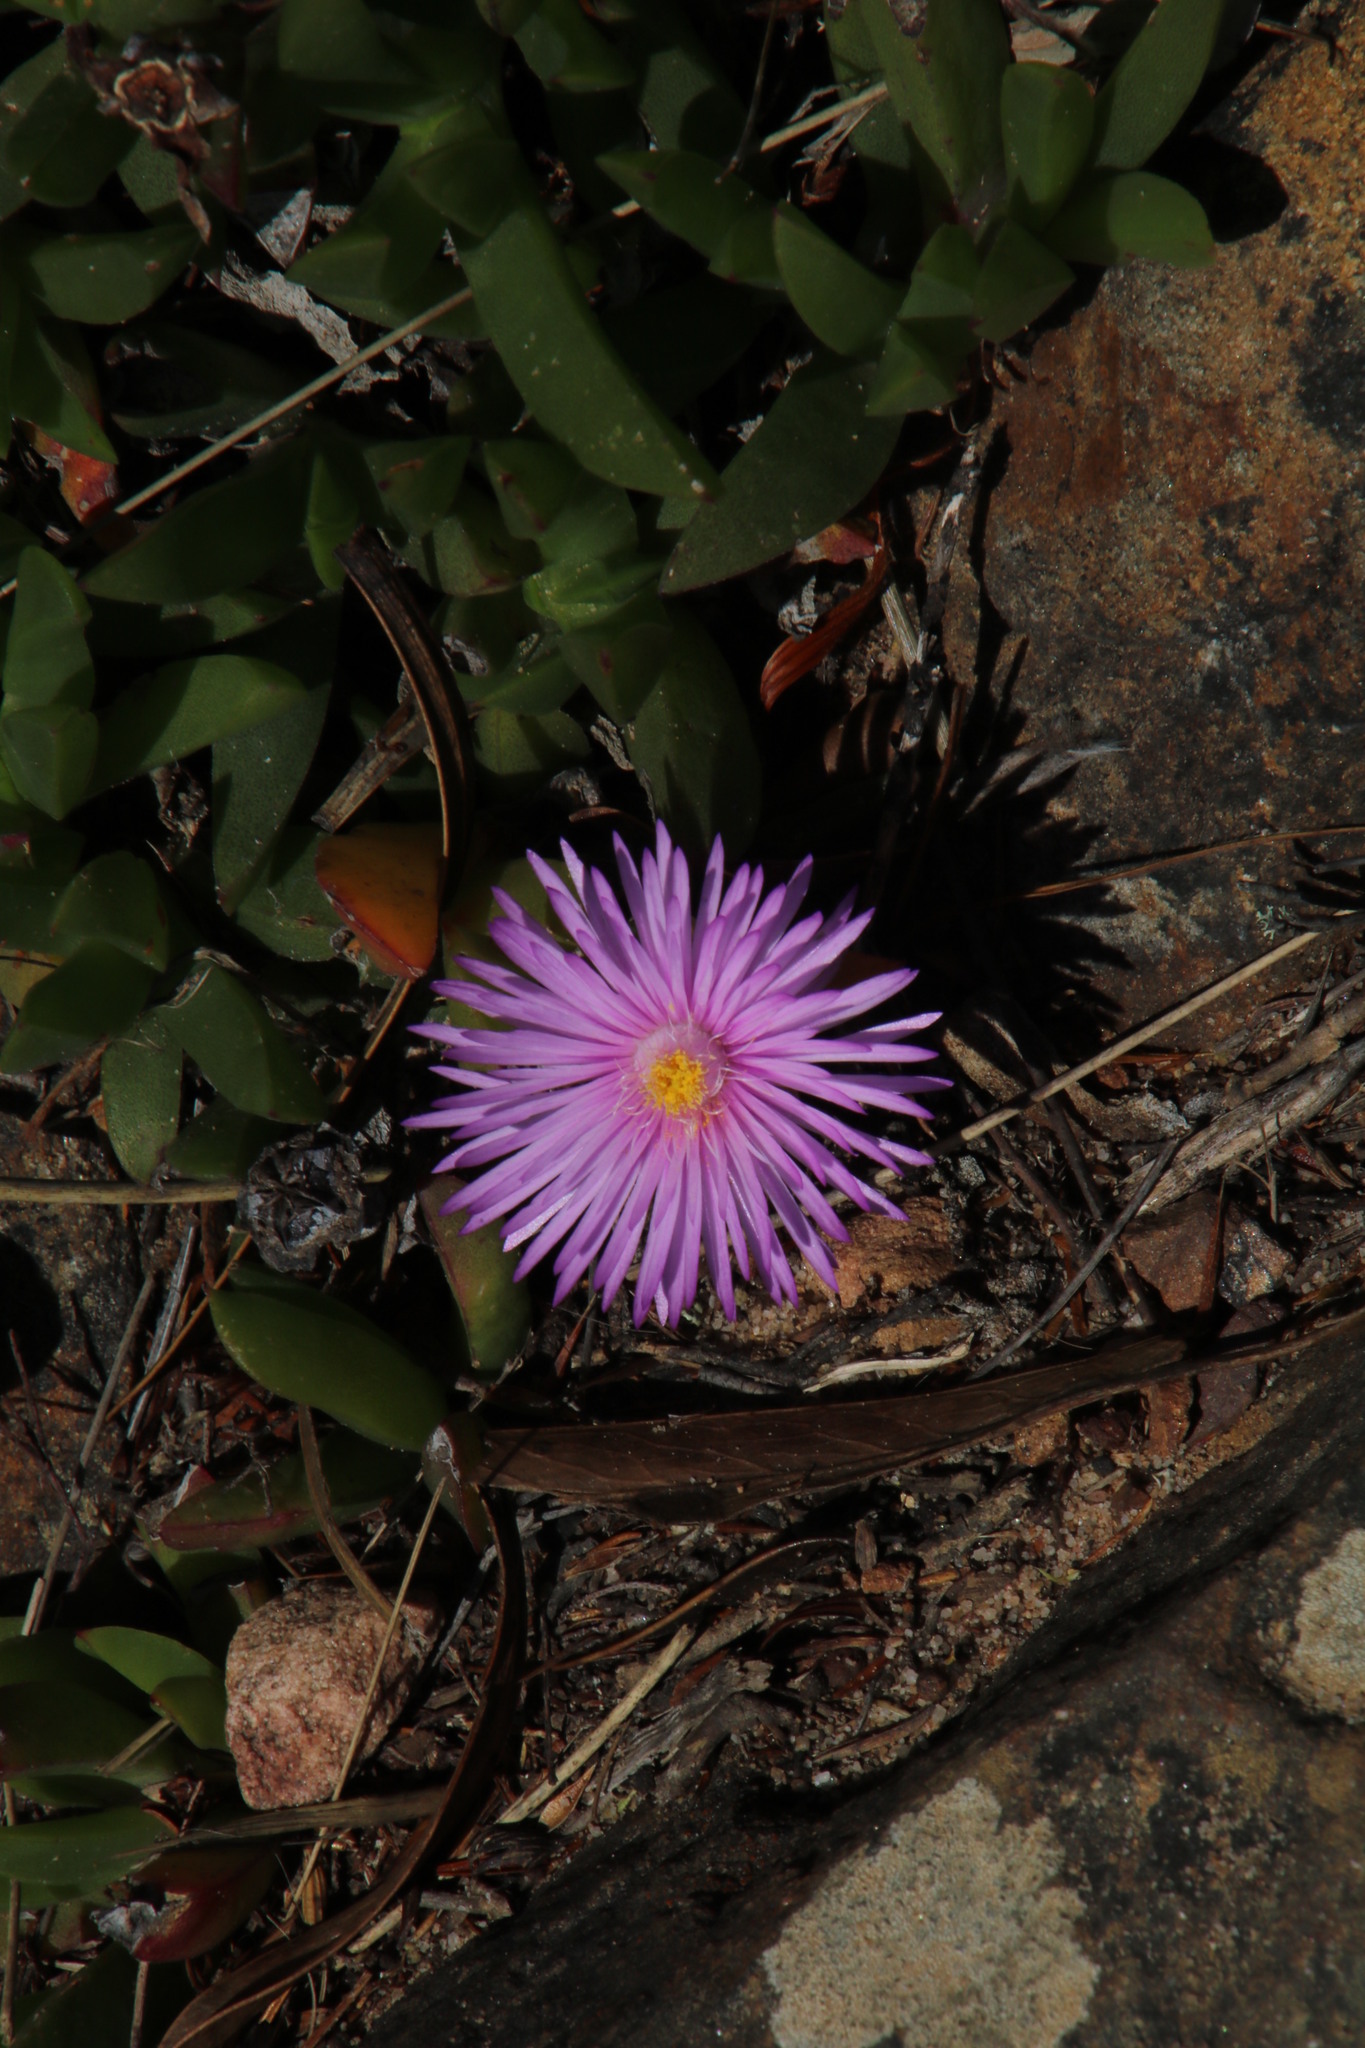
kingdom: Plantae
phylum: Tracheophyta
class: Magnoliopsida
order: Caryophyllales
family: Aizoaceae
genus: Ruschia
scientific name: Ruschia rubricaulis
